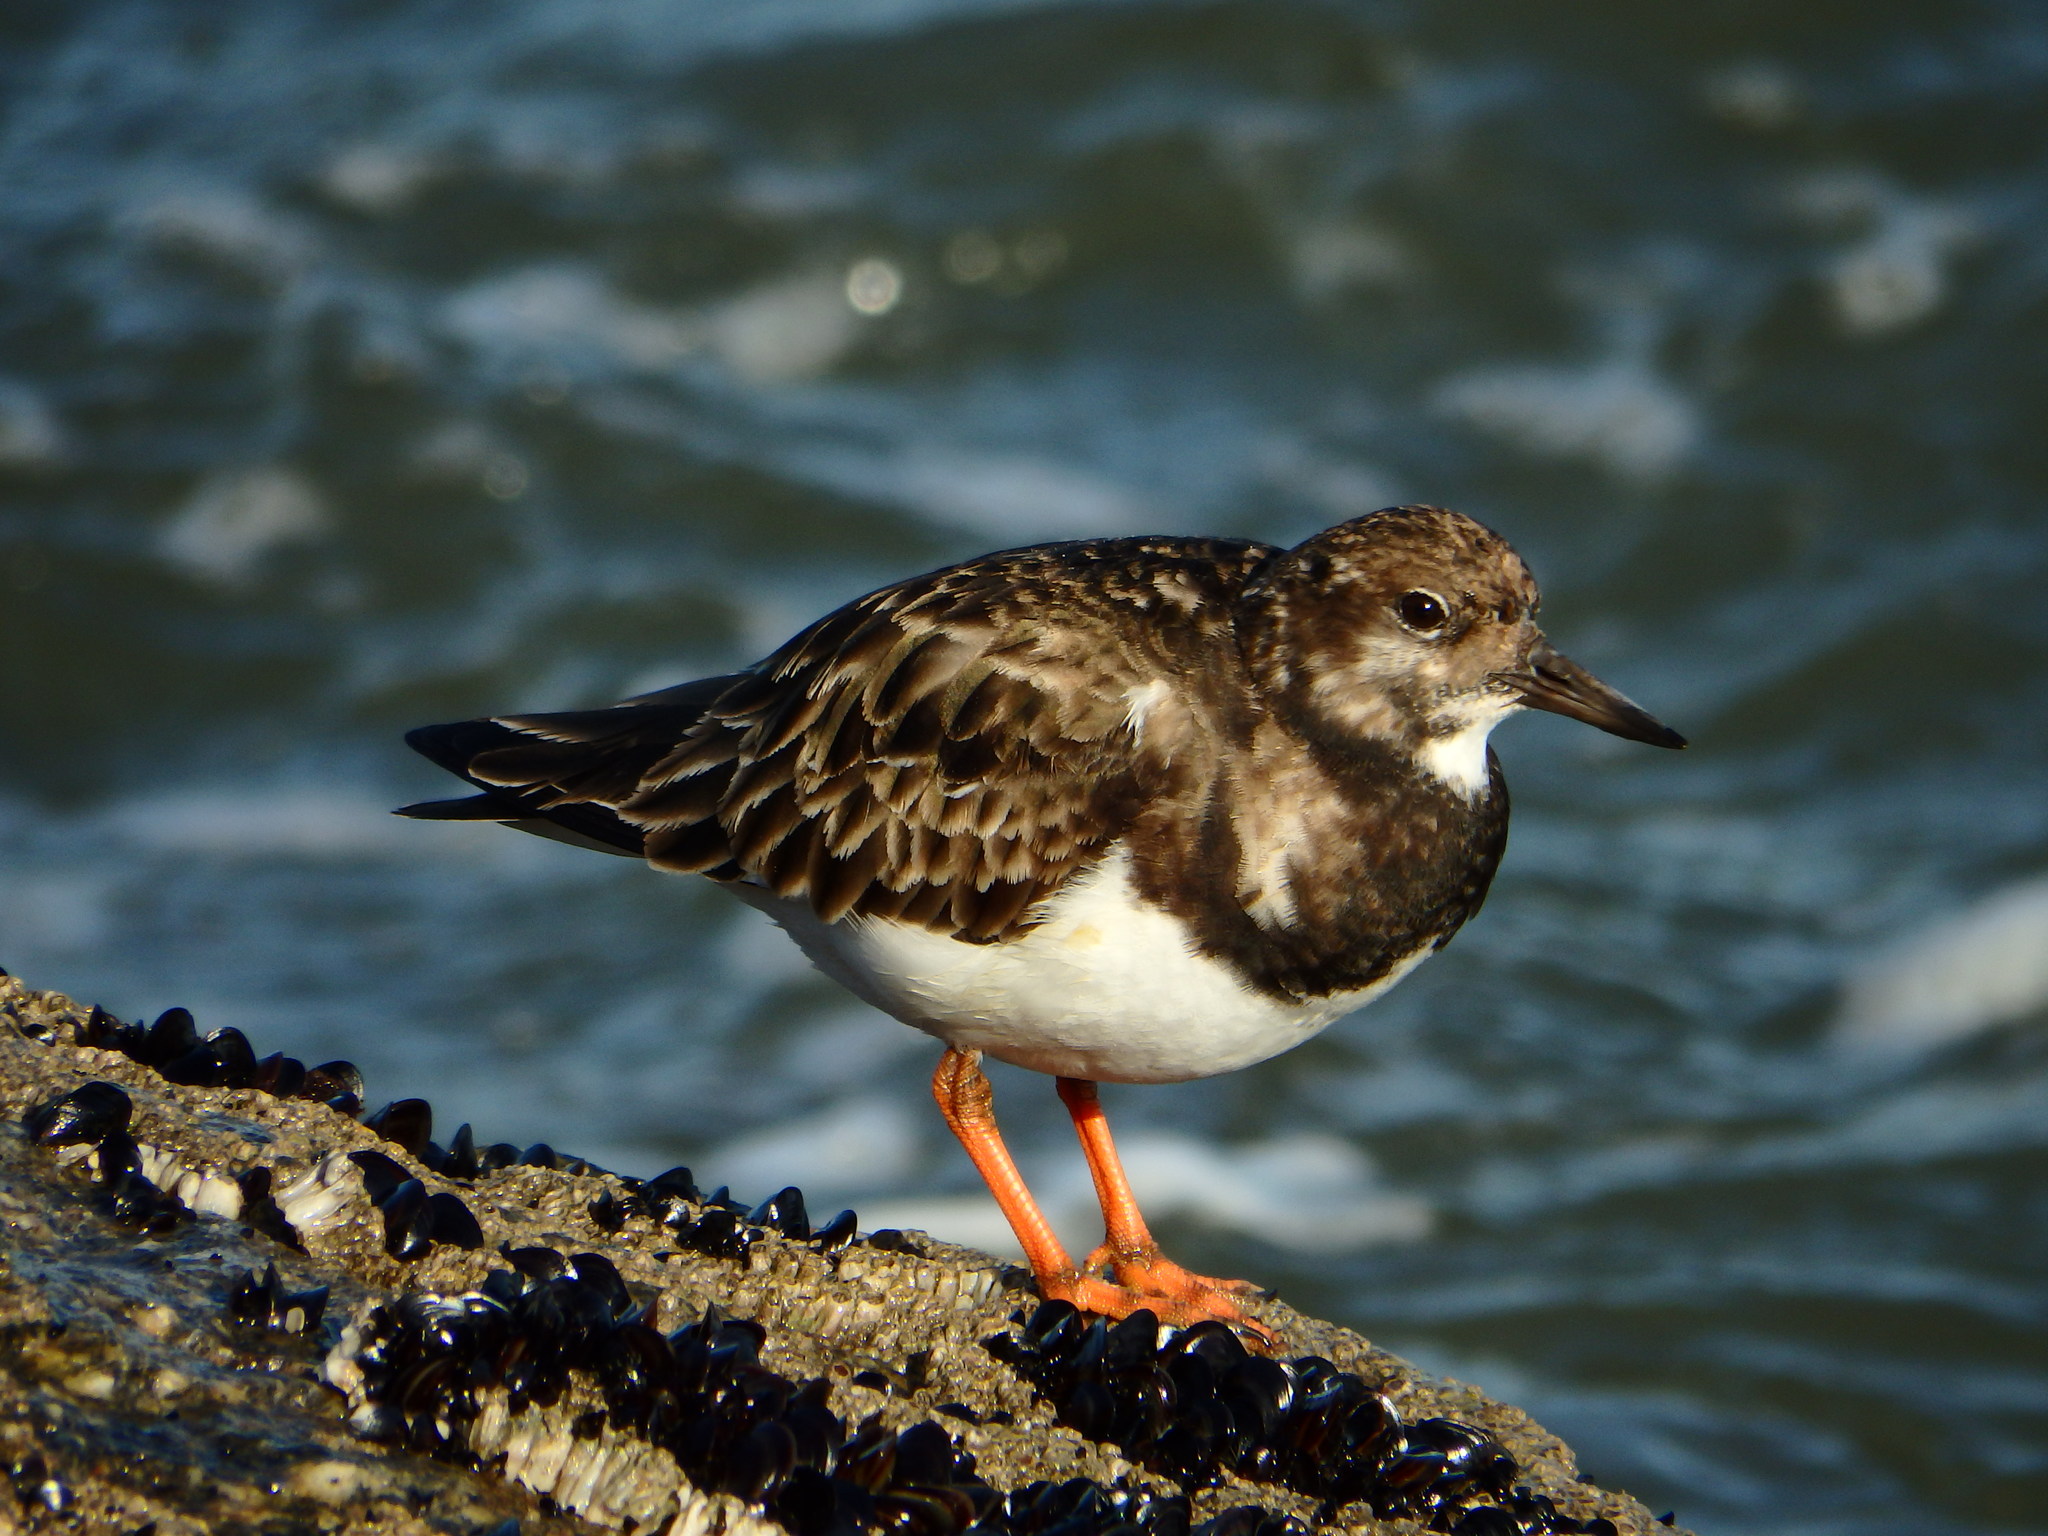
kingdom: Animalia
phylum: Chordata
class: Aves
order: Charadriiformes
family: Scolopacidae
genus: Arenaria
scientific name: Arenaria interpres
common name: Ruddy turnstone
